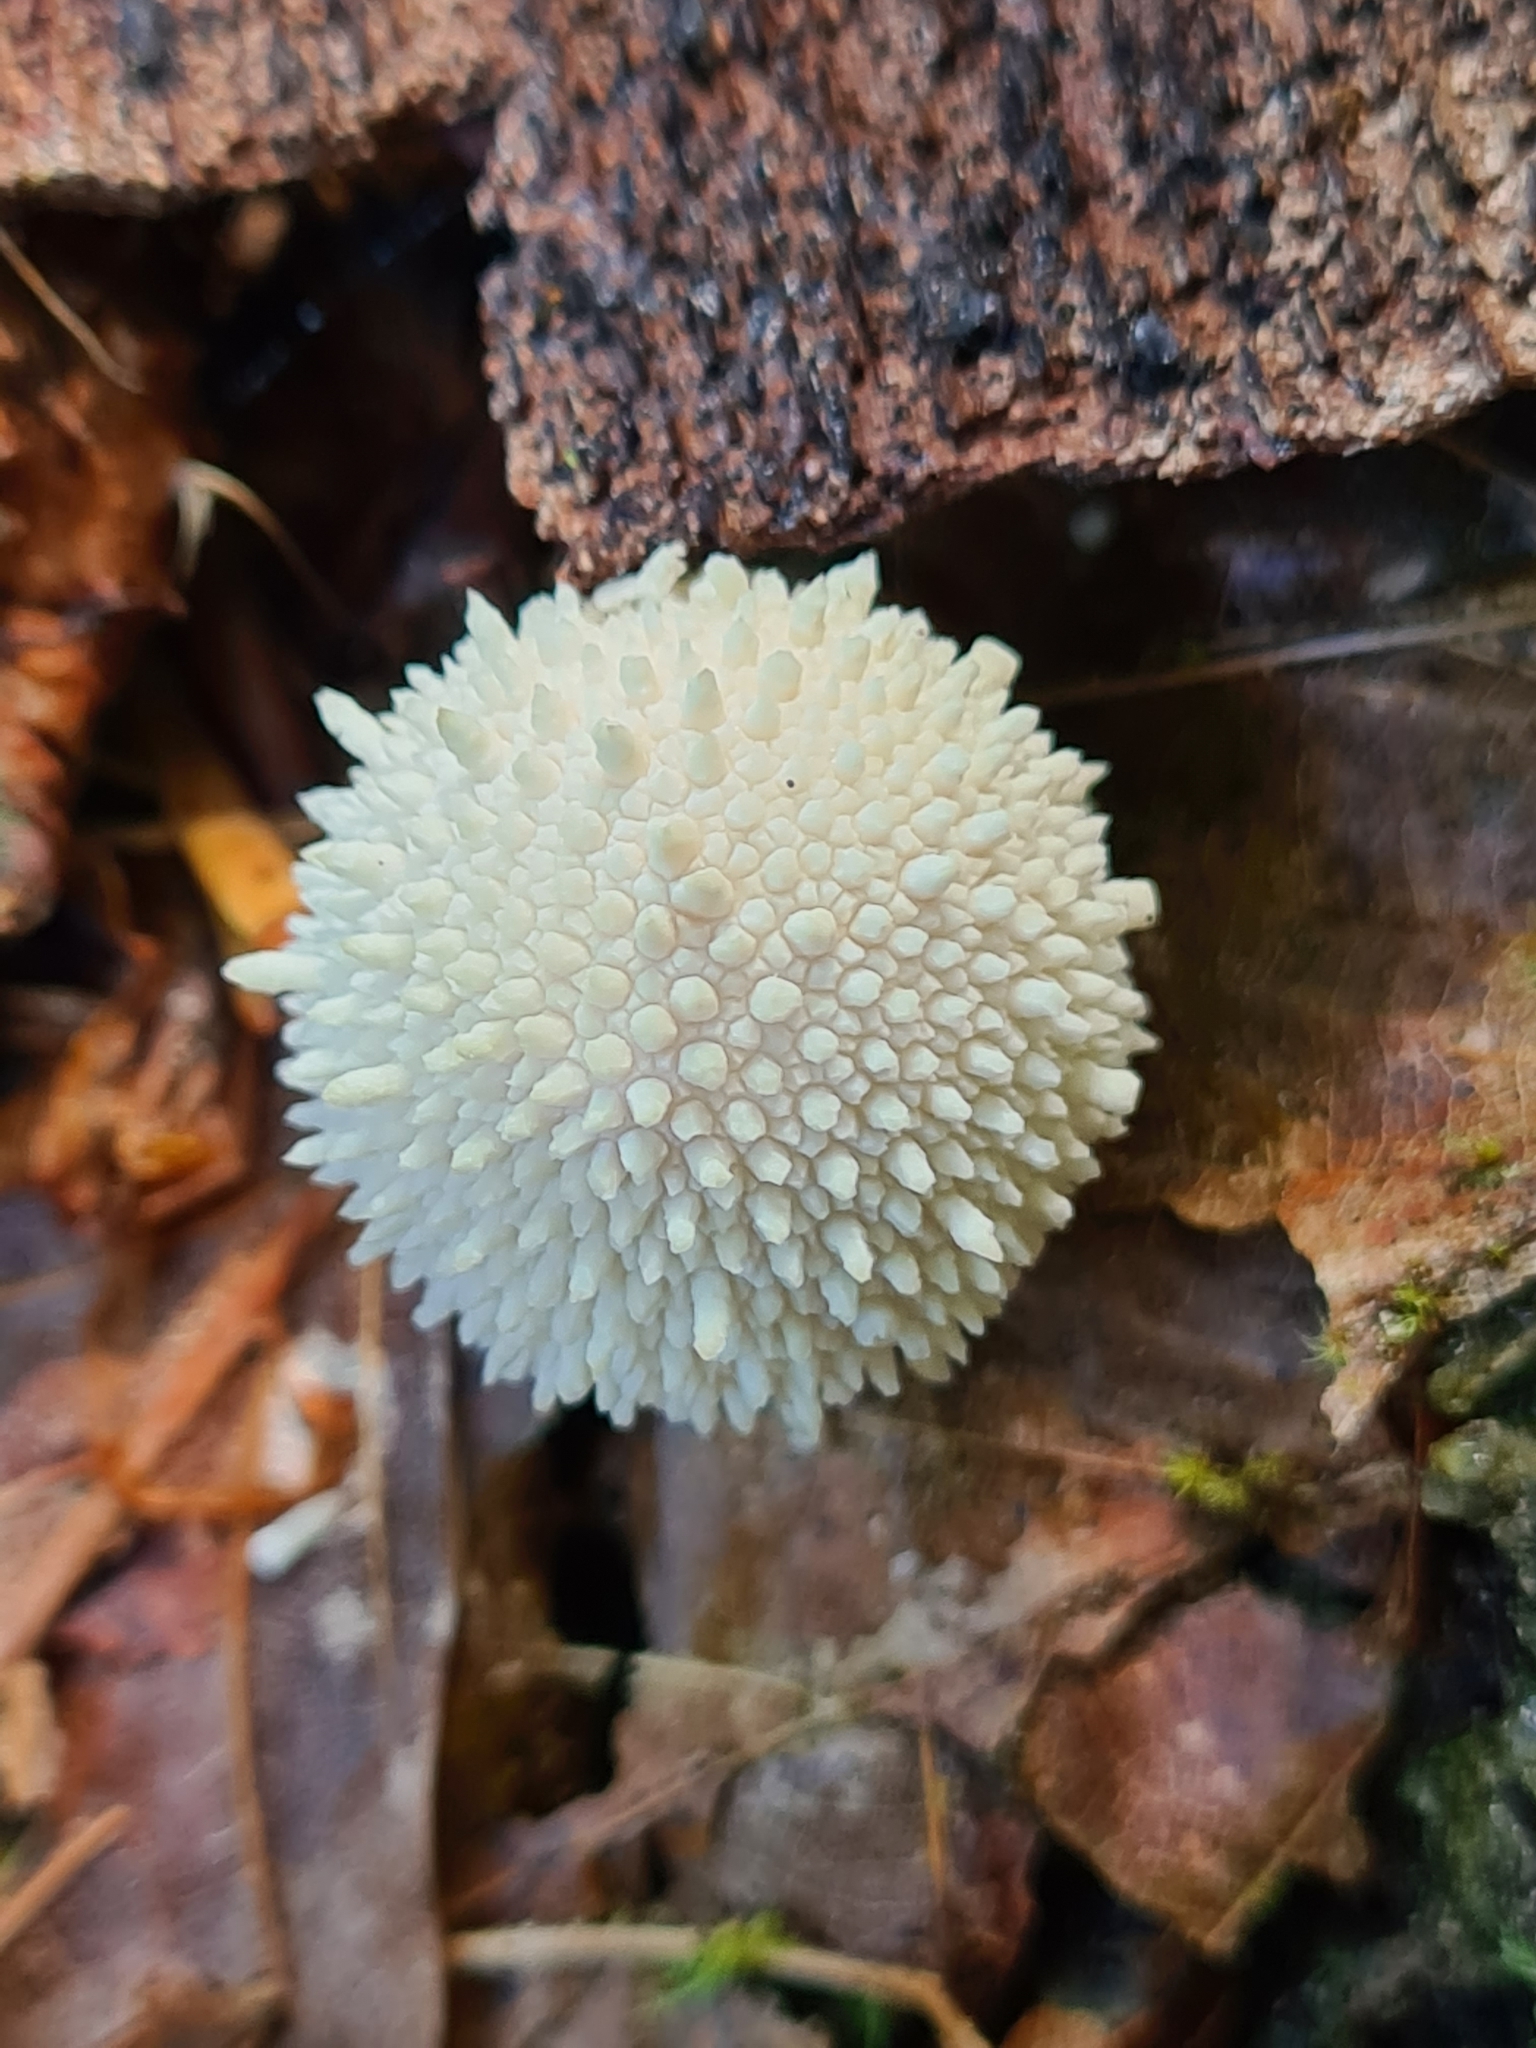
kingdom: Fungi
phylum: Basidiomycota
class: Agaricomycetes
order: Agaricales
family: Lycoperdaceae
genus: Lycoperdon
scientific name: Lycoperdon perlatum
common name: Common puffball
